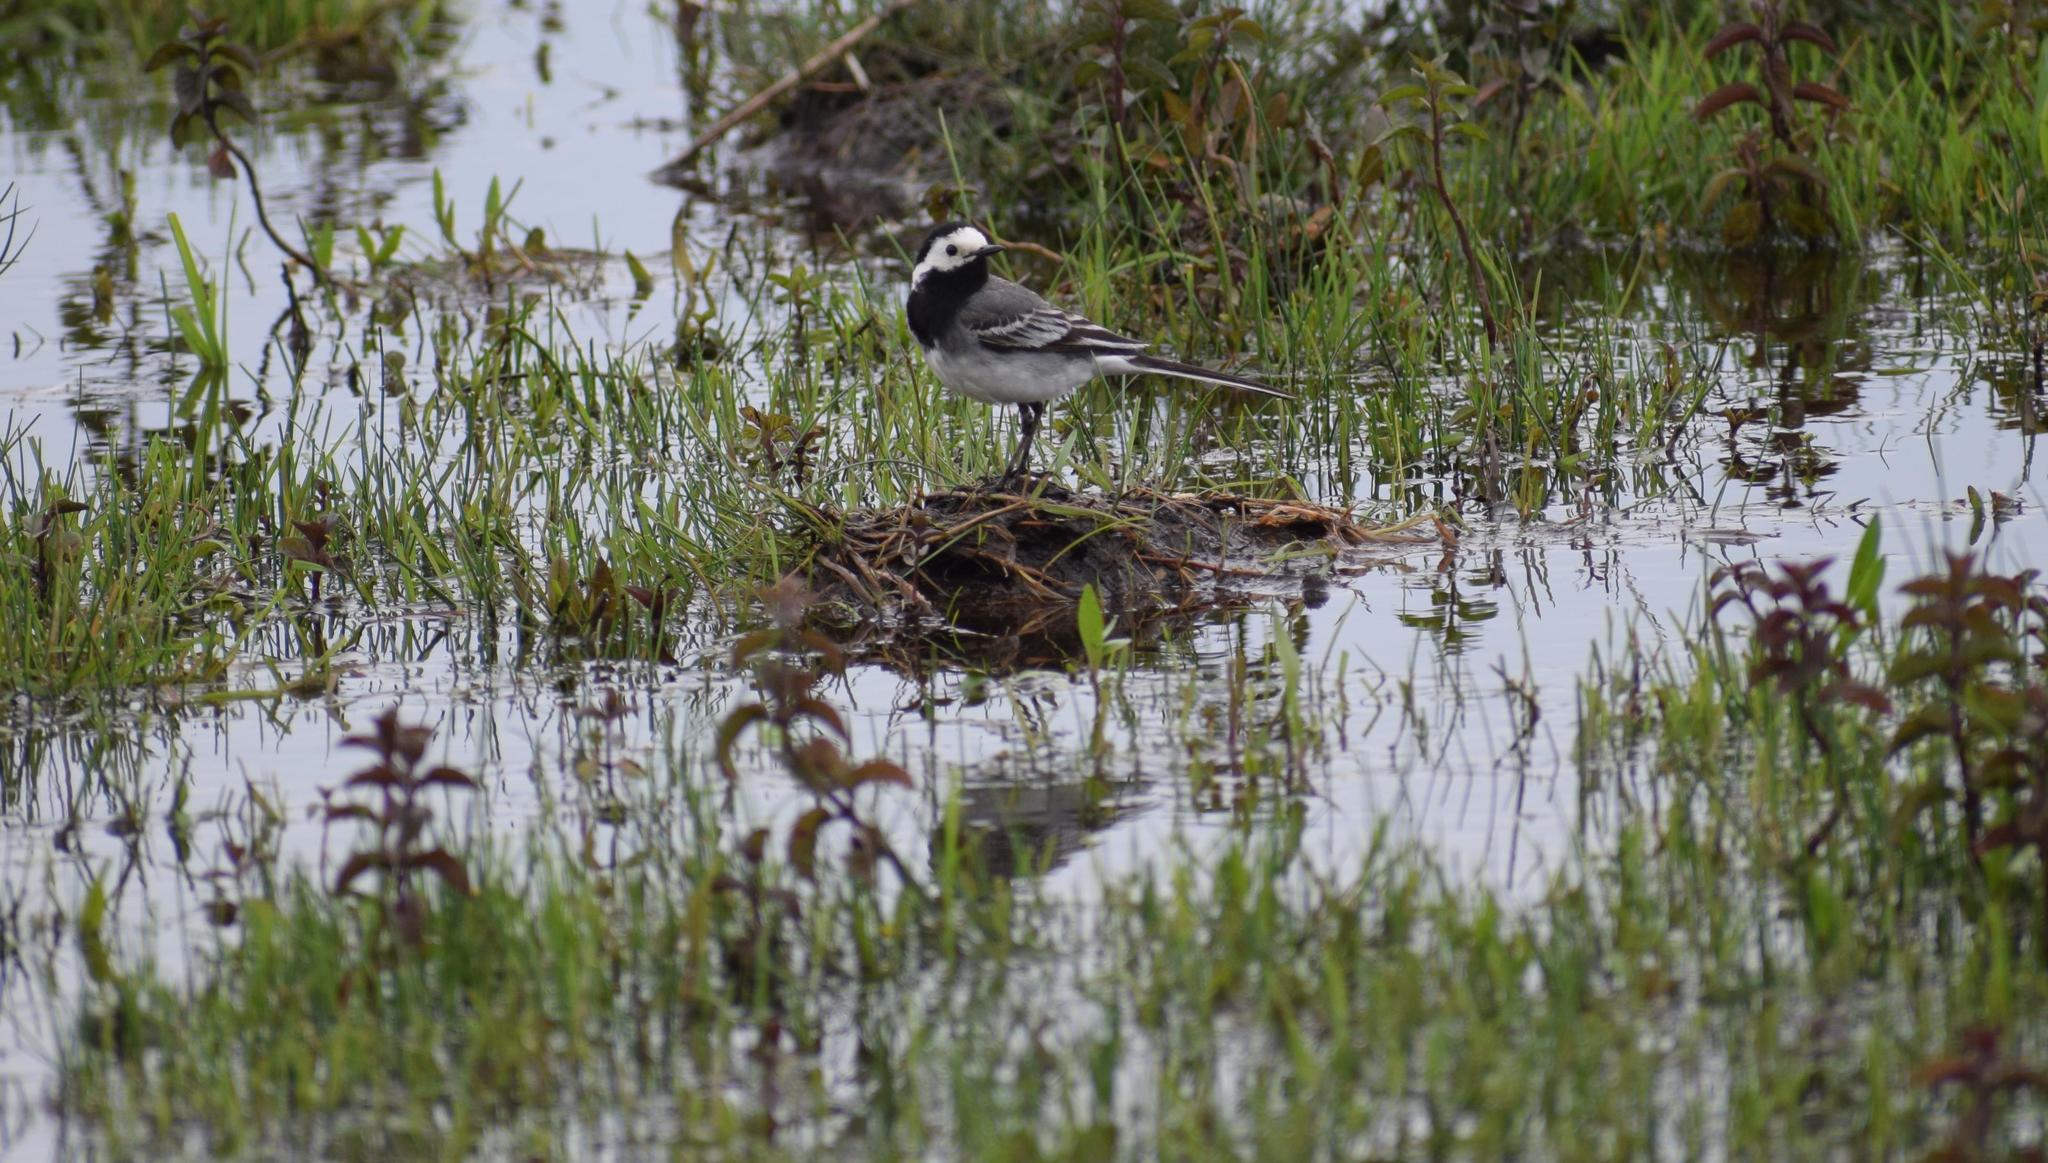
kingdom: Animalia
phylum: Chordata
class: Aves
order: Passeriformes
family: Motacillidae
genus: Motacilla
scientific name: Motacilla alba
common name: White wagtail
